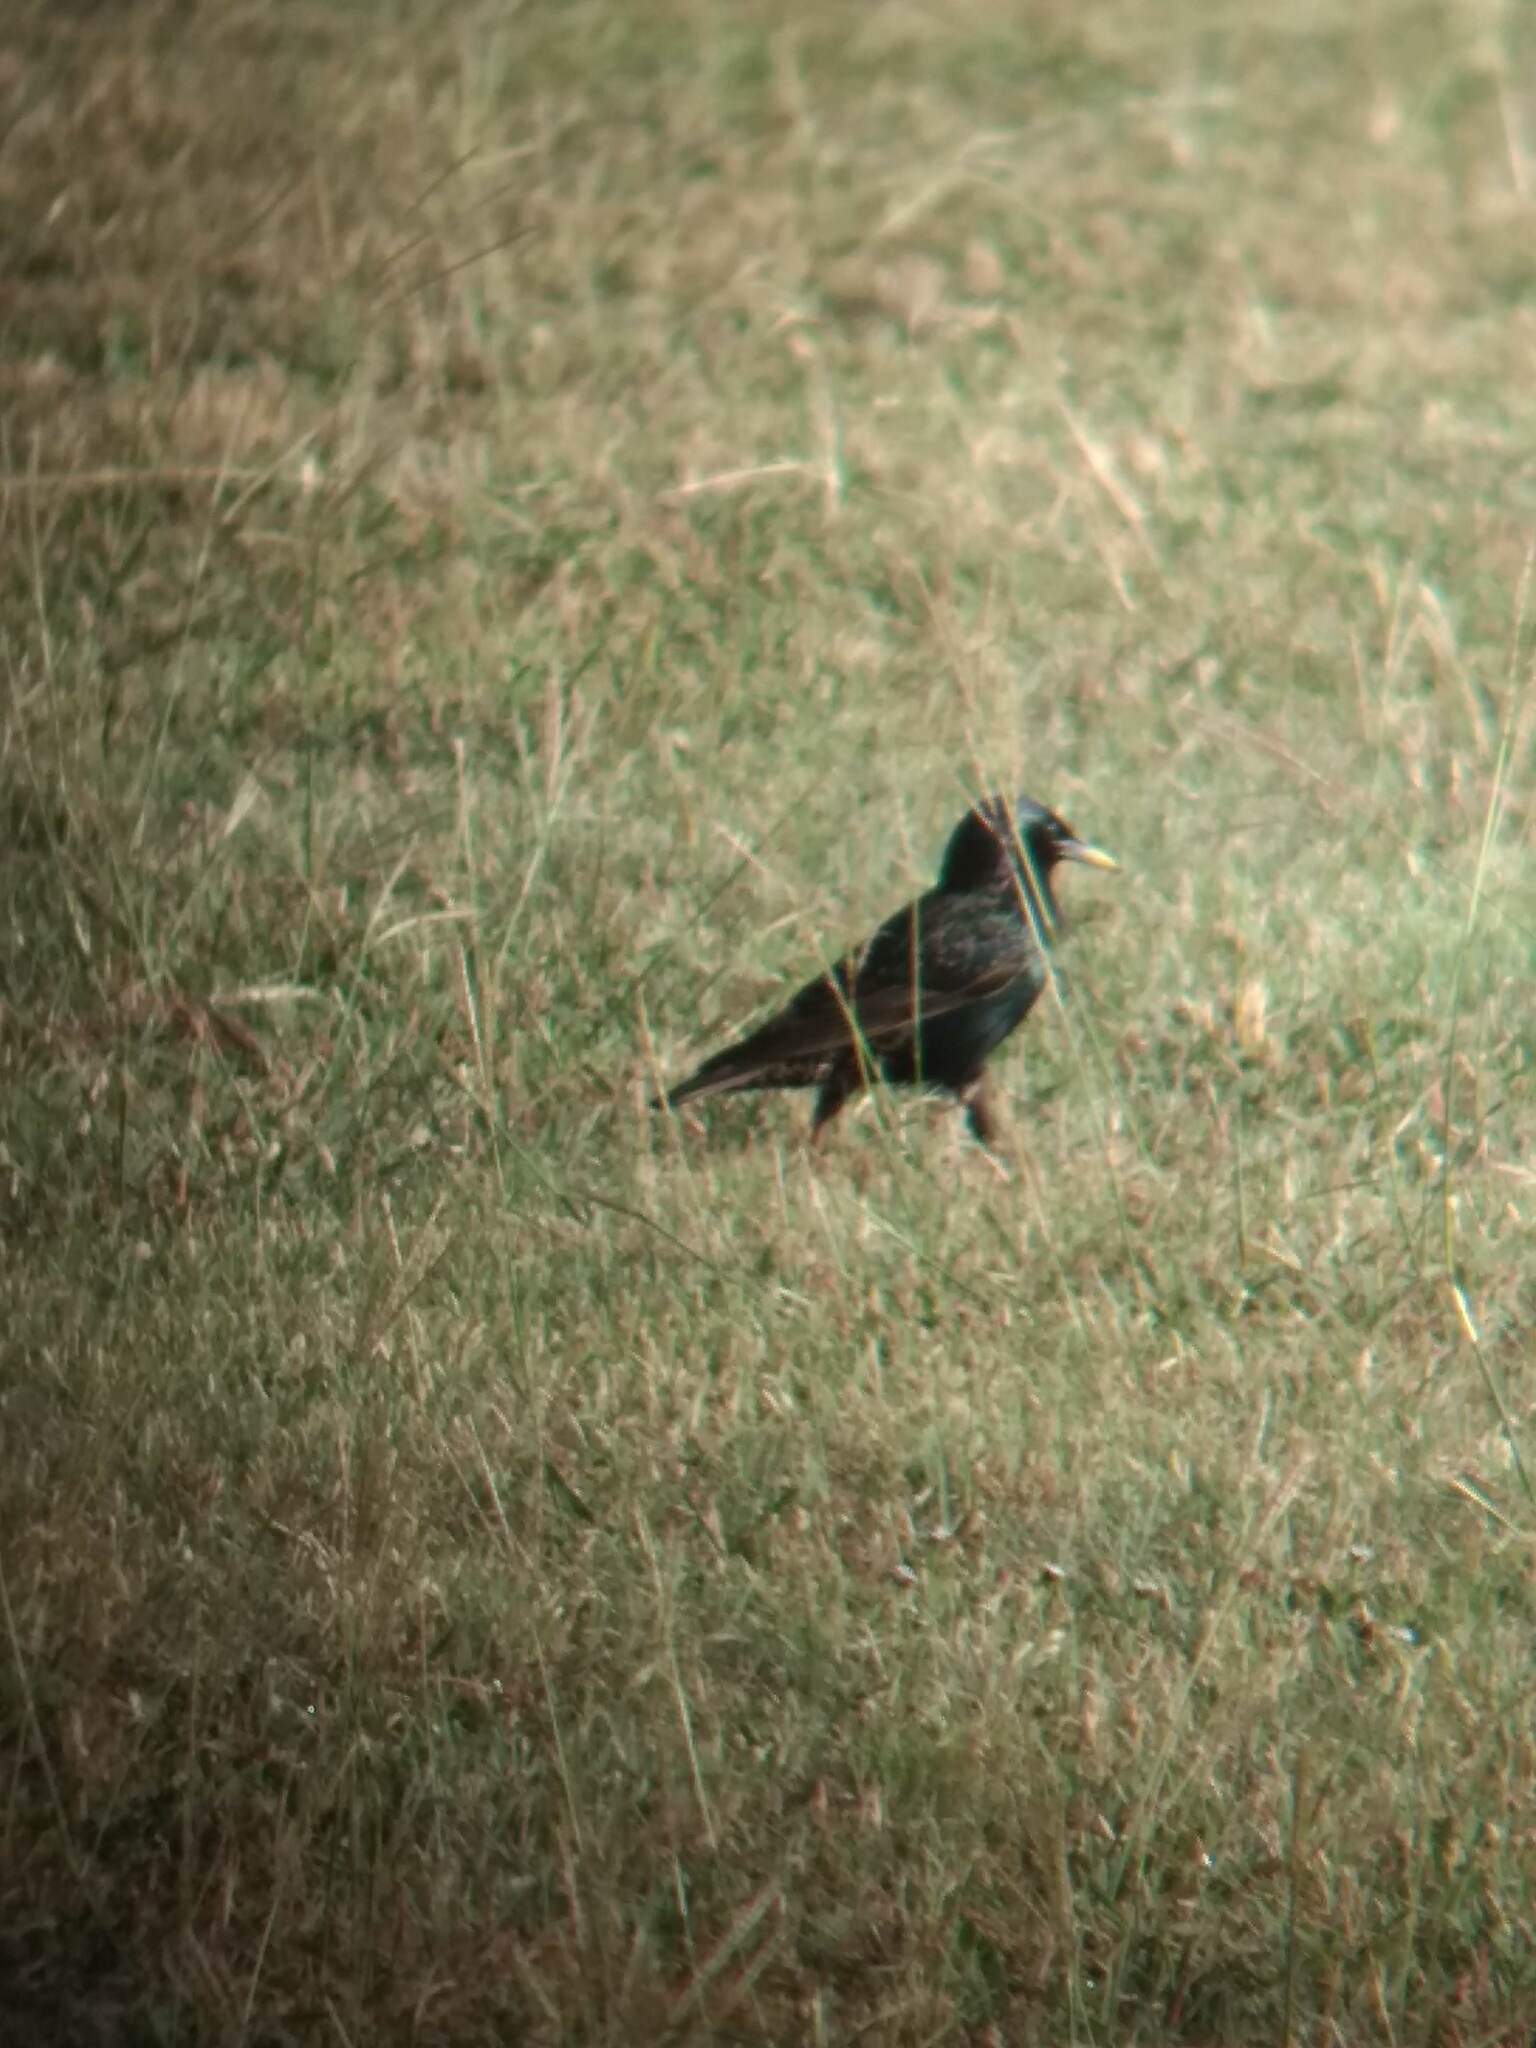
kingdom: Animalia
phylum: Chordata
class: Aves
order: Passeriformes
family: Sturnidae
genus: Sturnus
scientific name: Sturnus vulgaris
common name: Common starling
